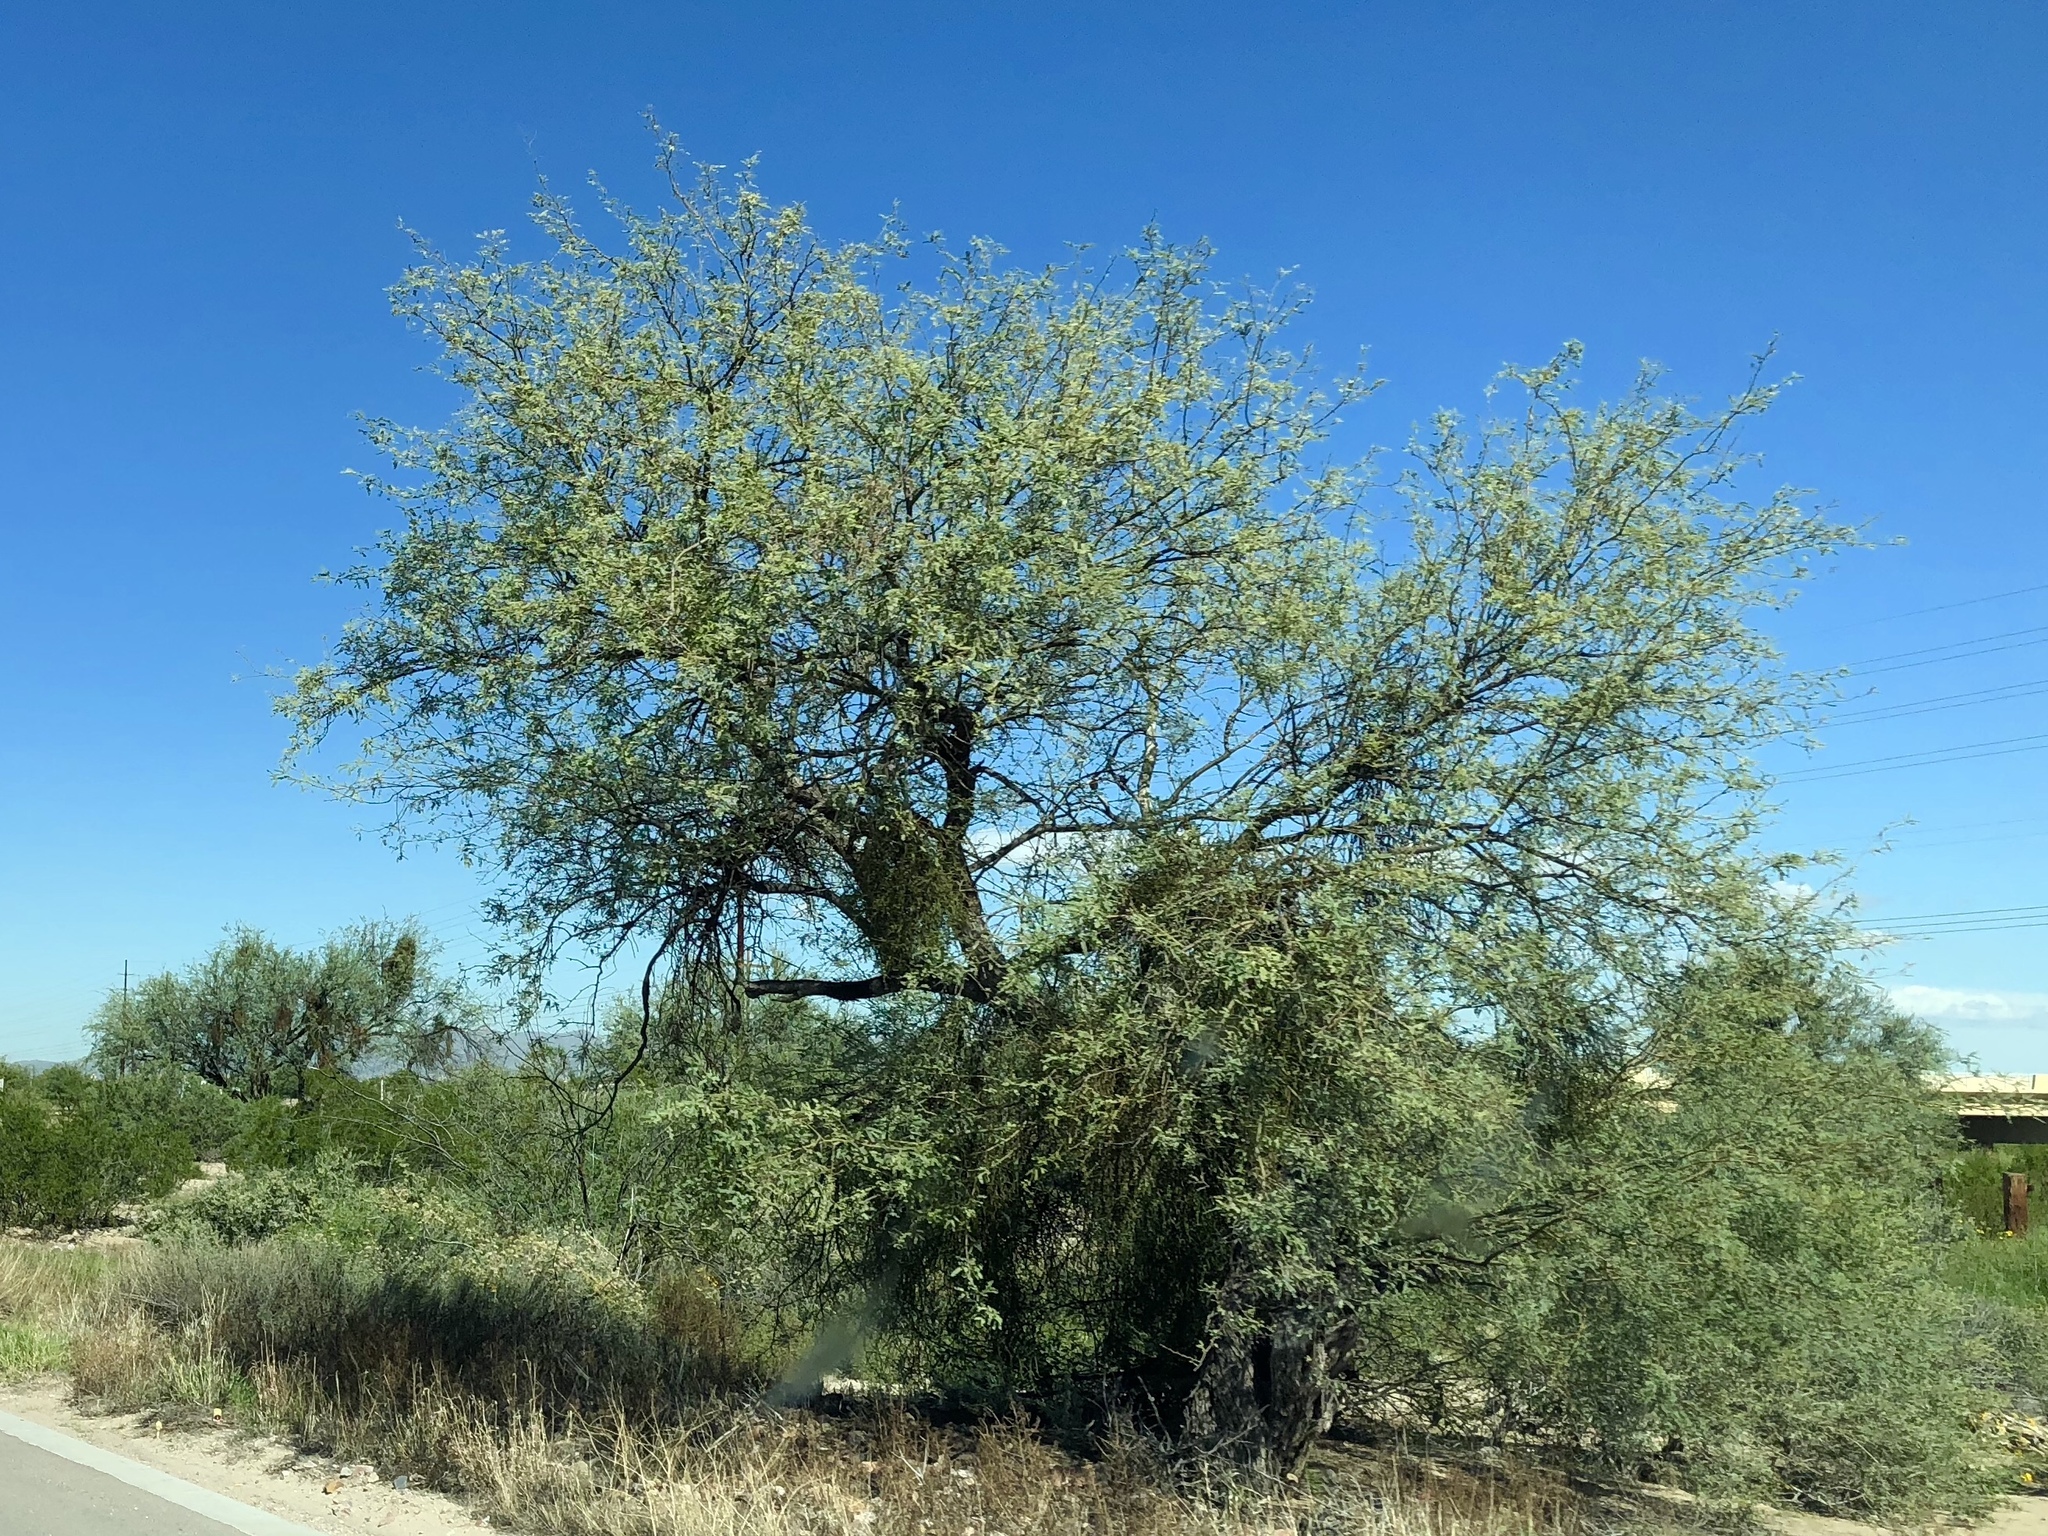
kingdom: Plantae
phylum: Tracheophyta
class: Magnoliopsida
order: Fabales
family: Fabaceae
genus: Prosopis
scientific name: Prosopis velutina
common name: Velvet mesquite
